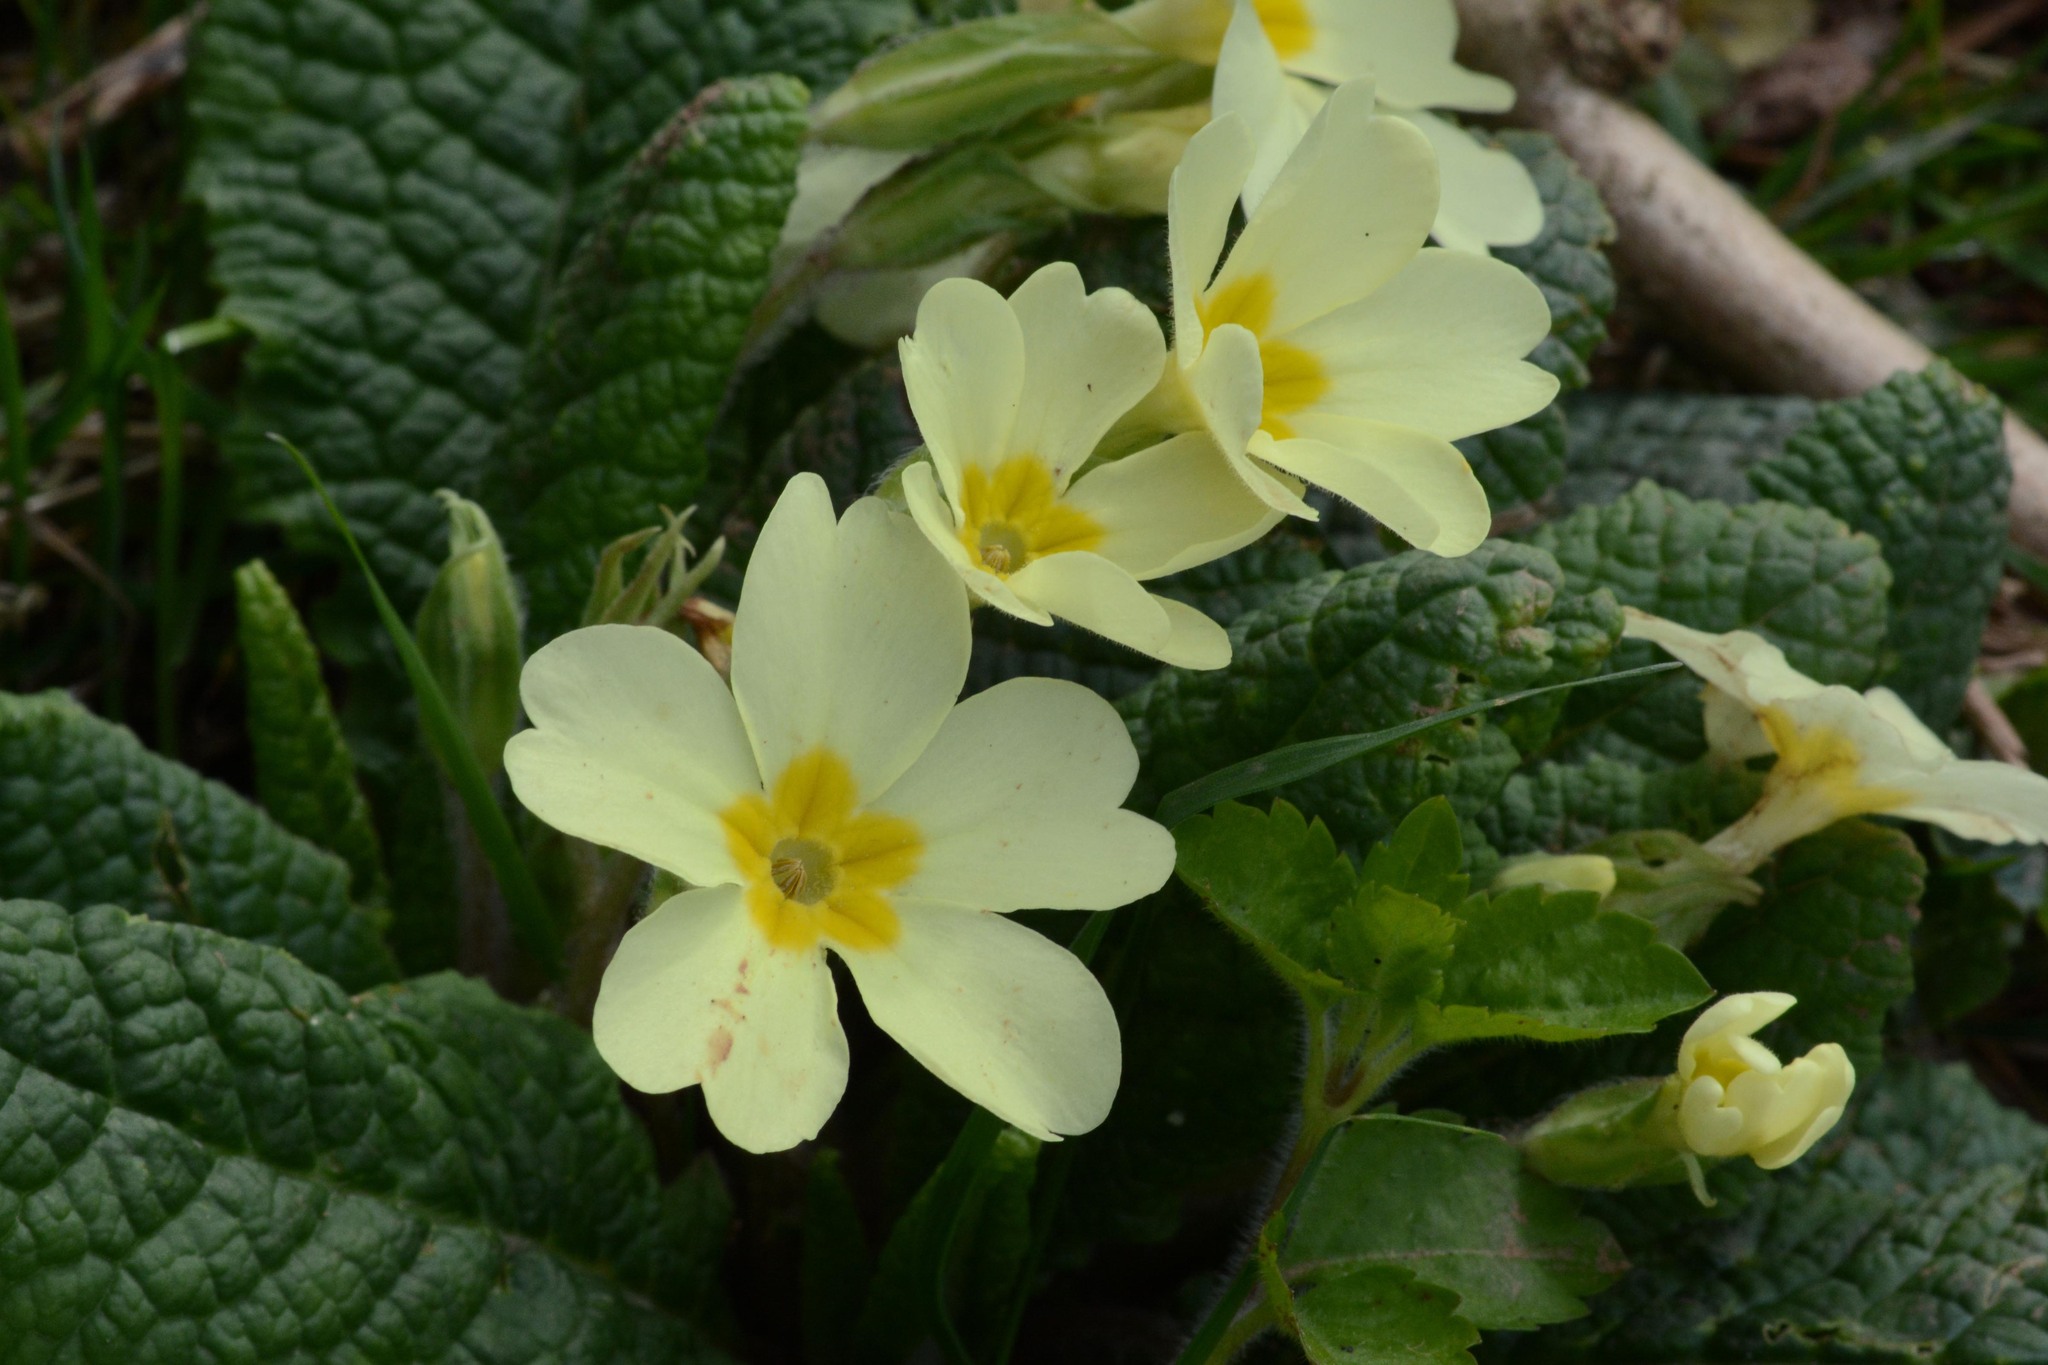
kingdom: Plantae
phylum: Tracheophyta
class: Magnoliopsida
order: Ericales
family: Primulaceae
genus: Primula
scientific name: Primula vulgaris
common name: Primrose
